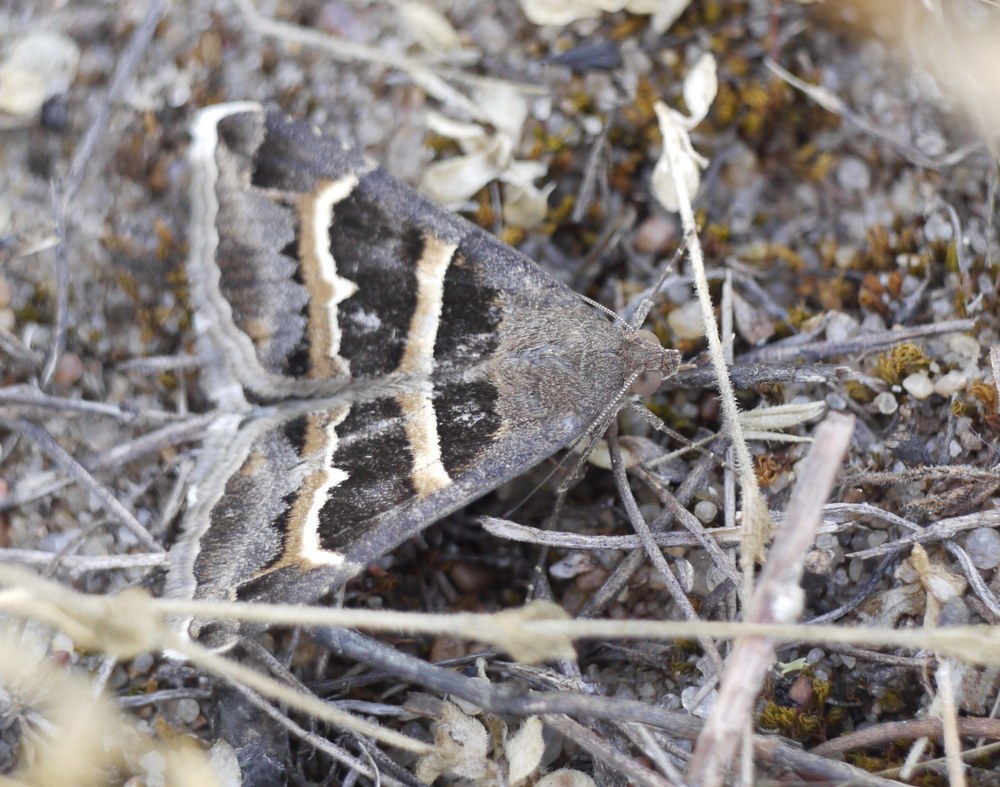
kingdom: Animalia
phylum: Arthropoda
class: Insecta
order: Lepidoptera
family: Erebidae
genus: Grammodes
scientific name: Grammodes stolida
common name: Geometrician
